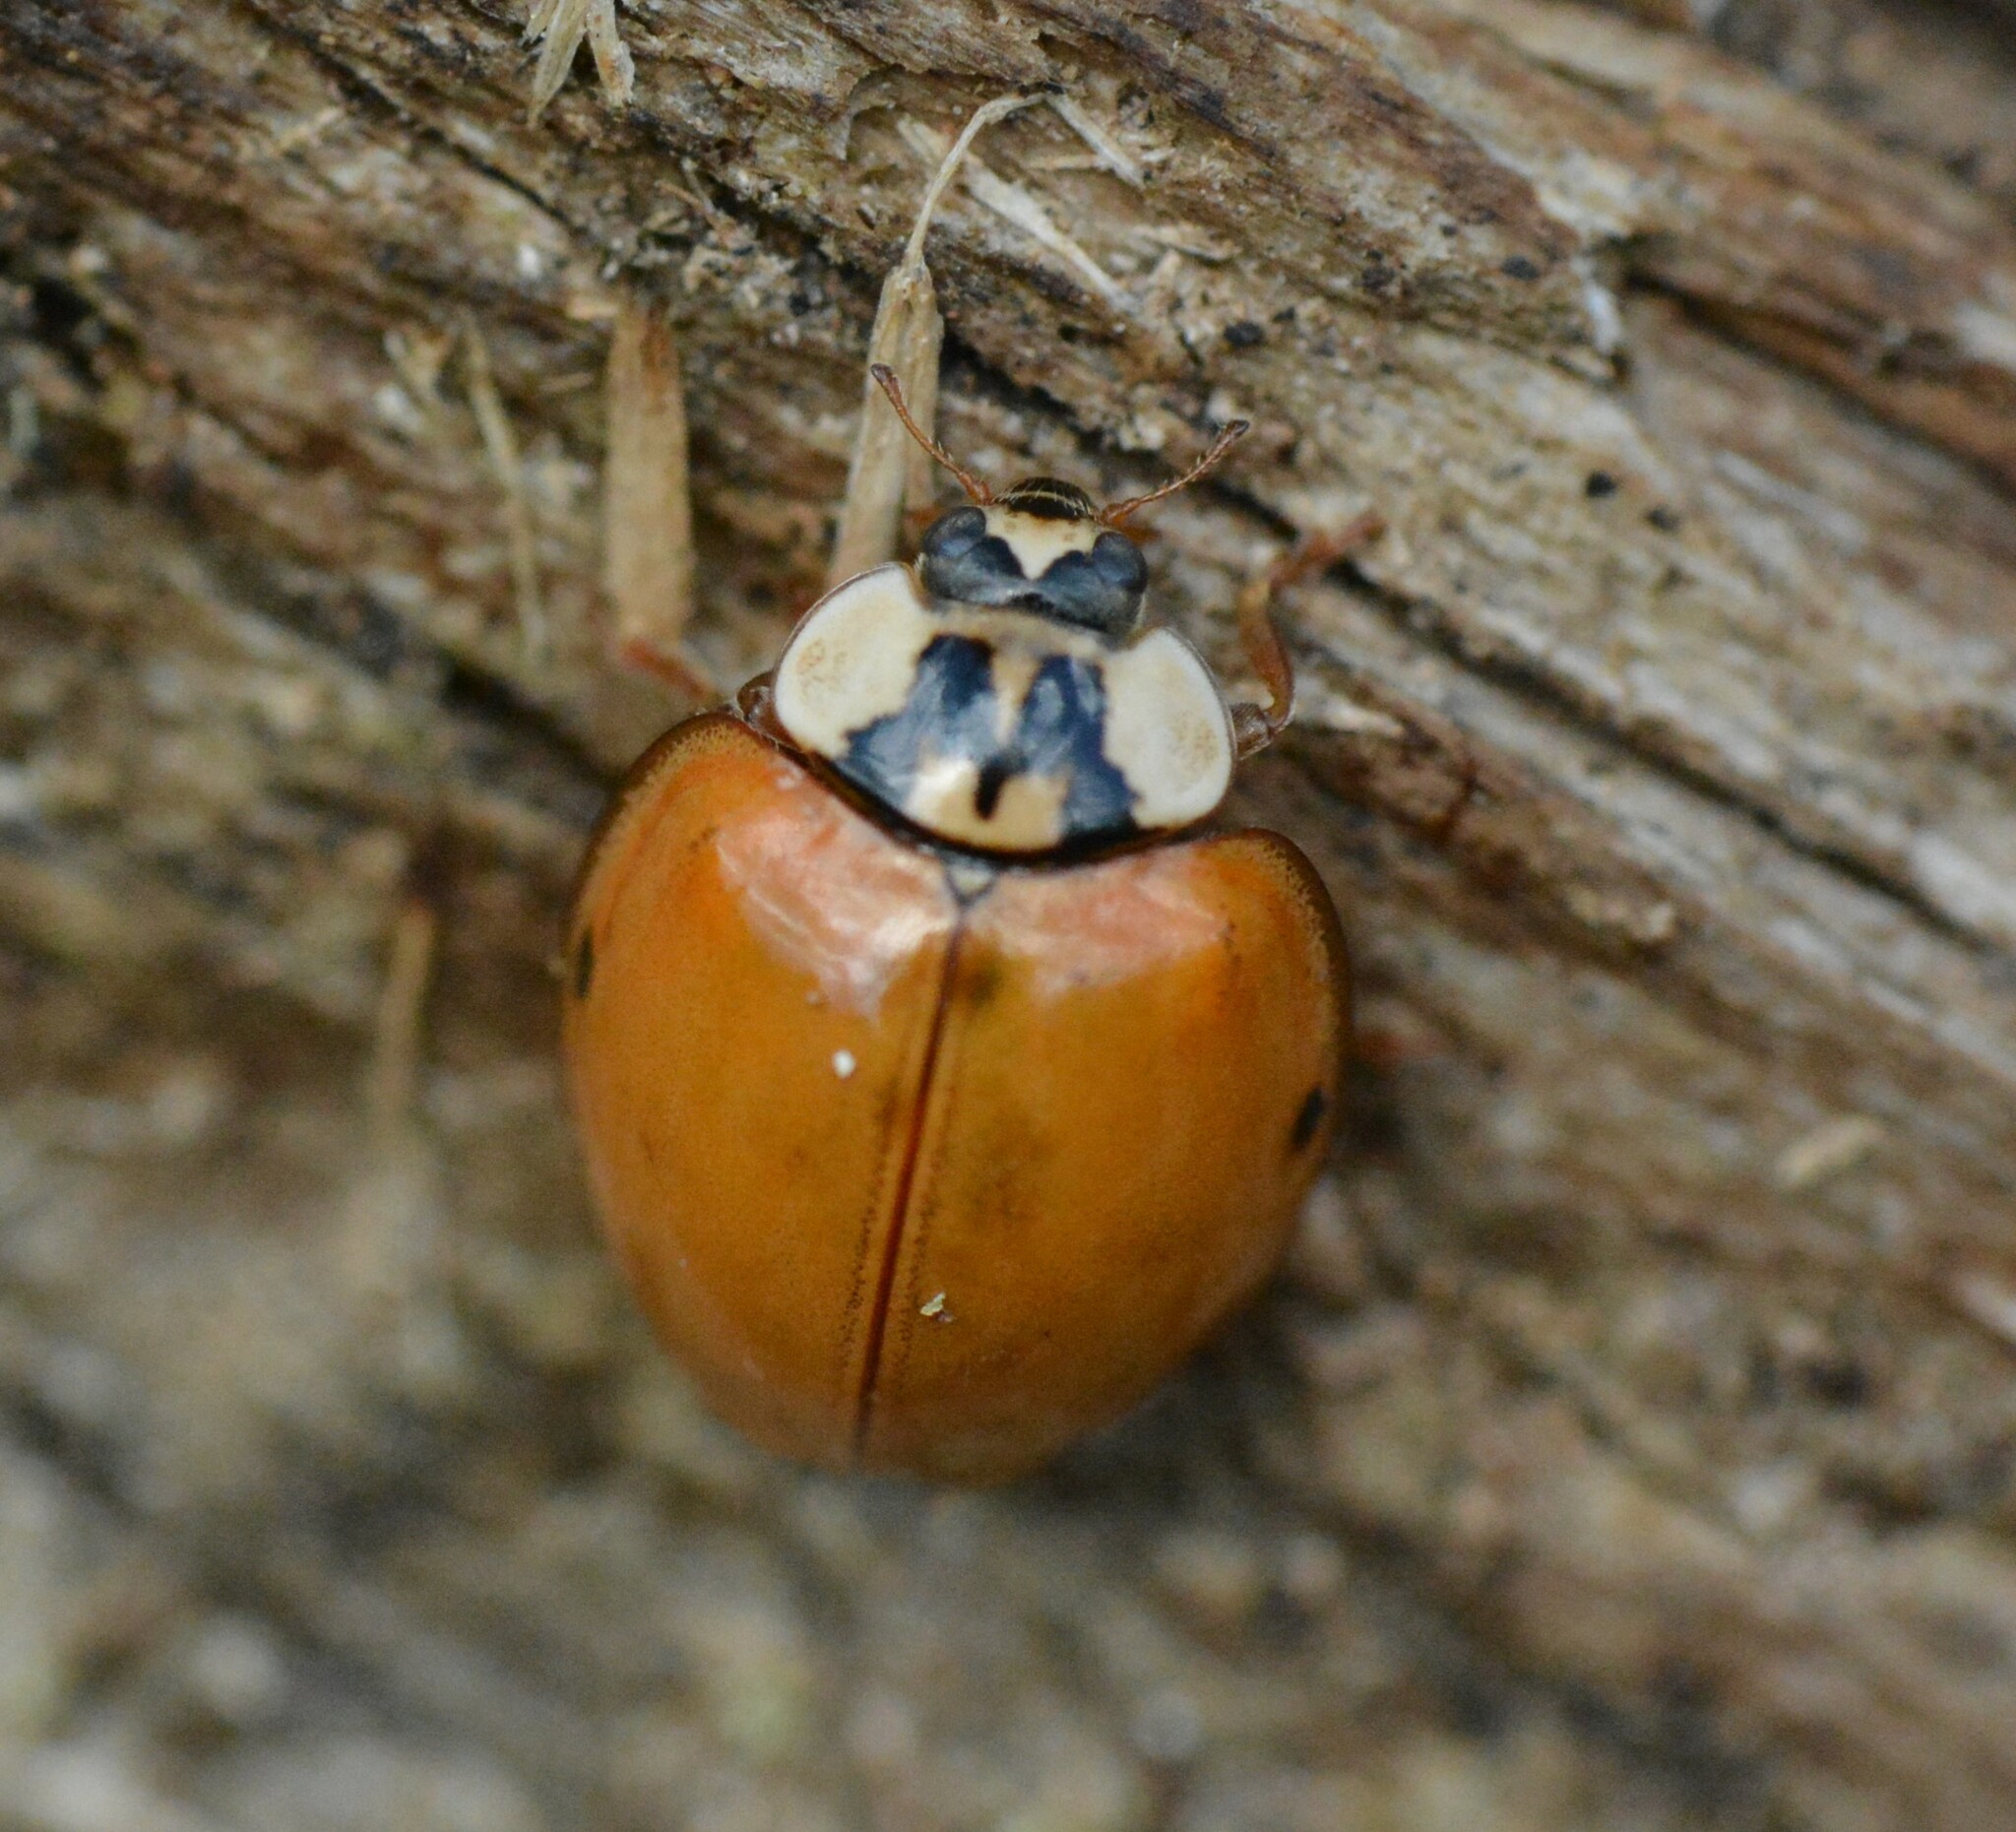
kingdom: Animalia
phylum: Arthropoda
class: Insecta
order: Coleoptera
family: Coccinellidae
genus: Harmonia
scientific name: Harmonia axyridis
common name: Harlequin ladybird
